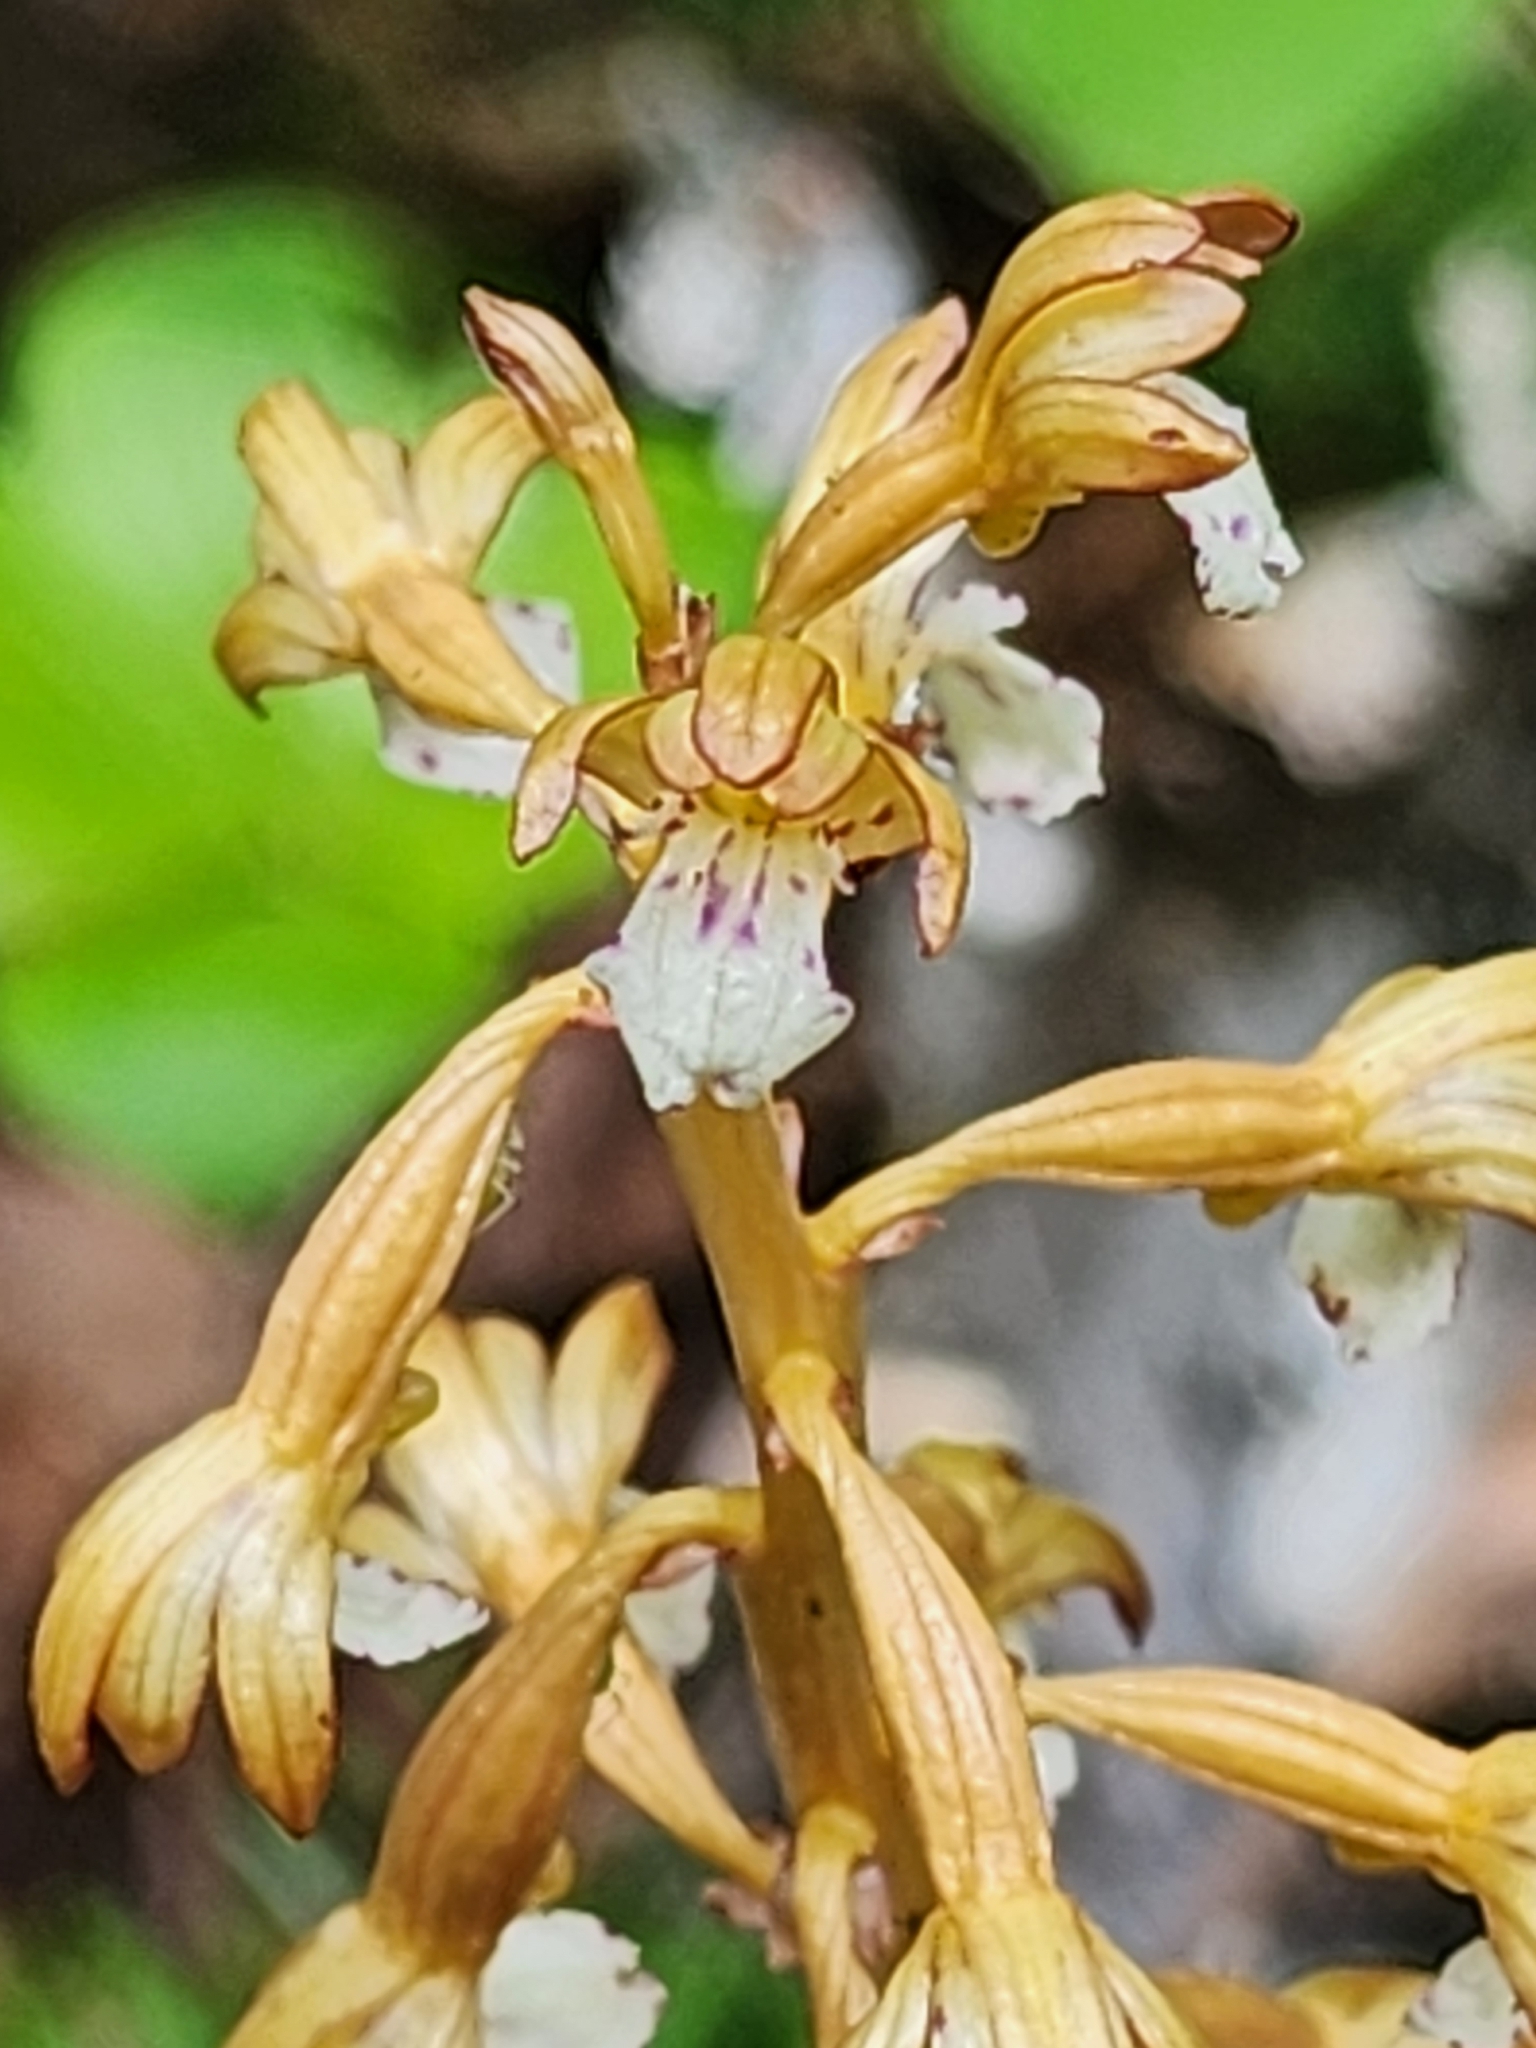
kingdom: Plantae
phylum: Tracheophyta
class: Liliopsida
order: Asparagales
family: Orchidaceae
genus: Corallorhiza
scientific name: Corallorhiza maculata
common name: Spotted coralroot
